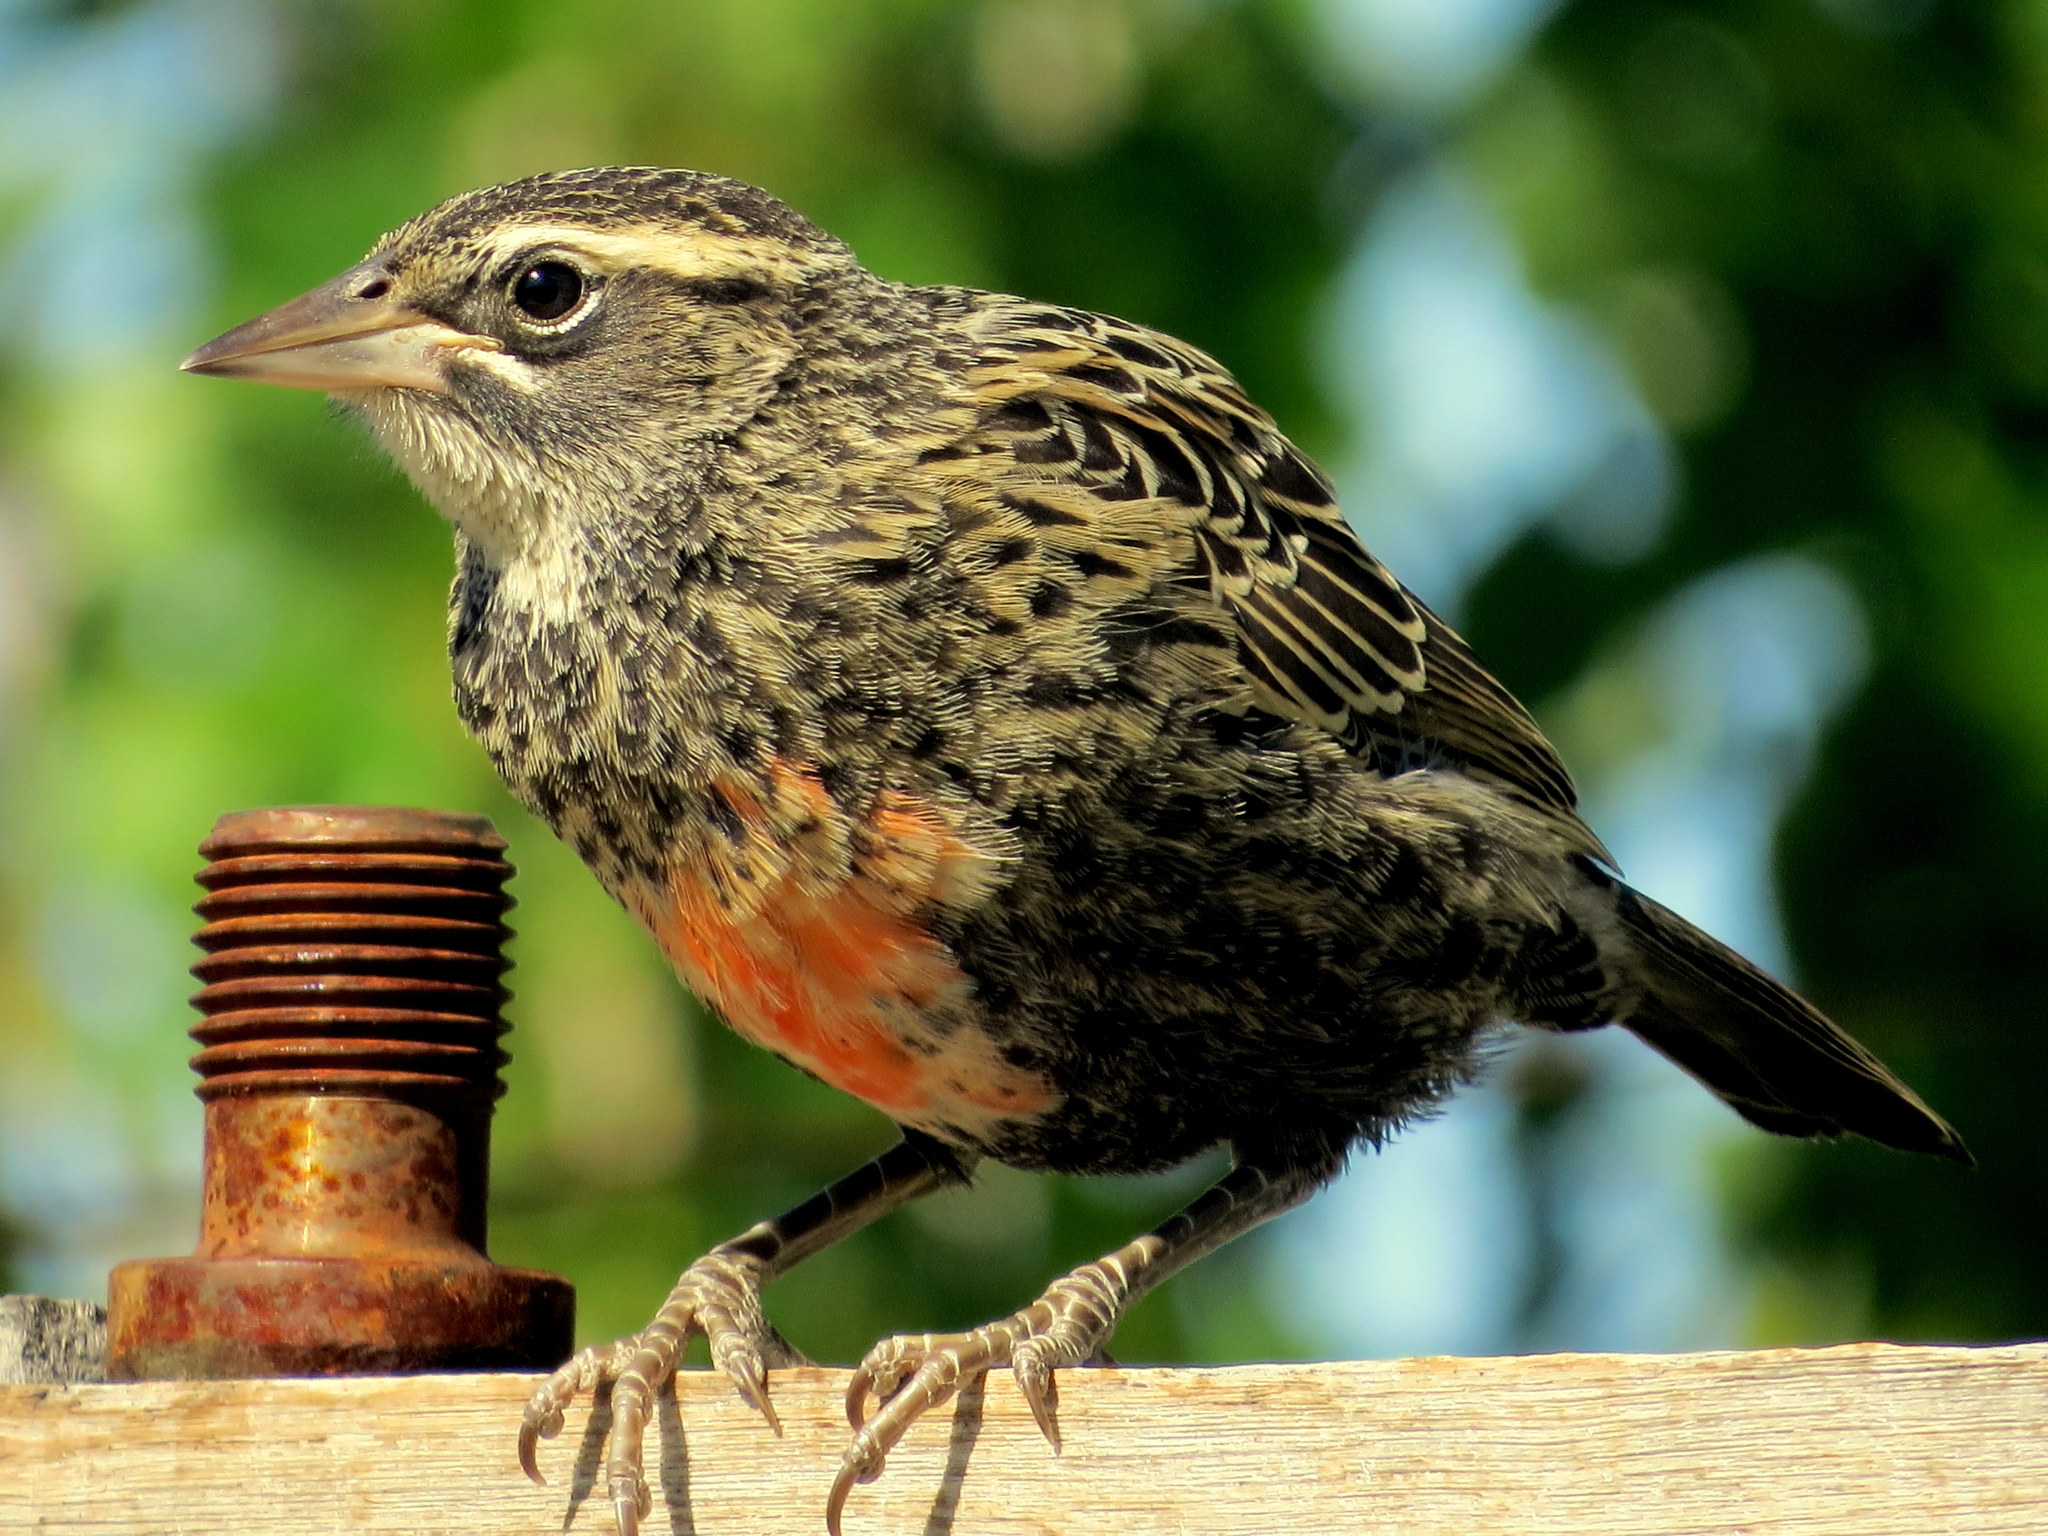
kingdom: Animalia
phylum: Chordata
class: Aves
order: Passeriformes
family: Icteridae
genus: Sturnella
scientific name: Sturnella loyca
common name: Long-tailed meadowlark
